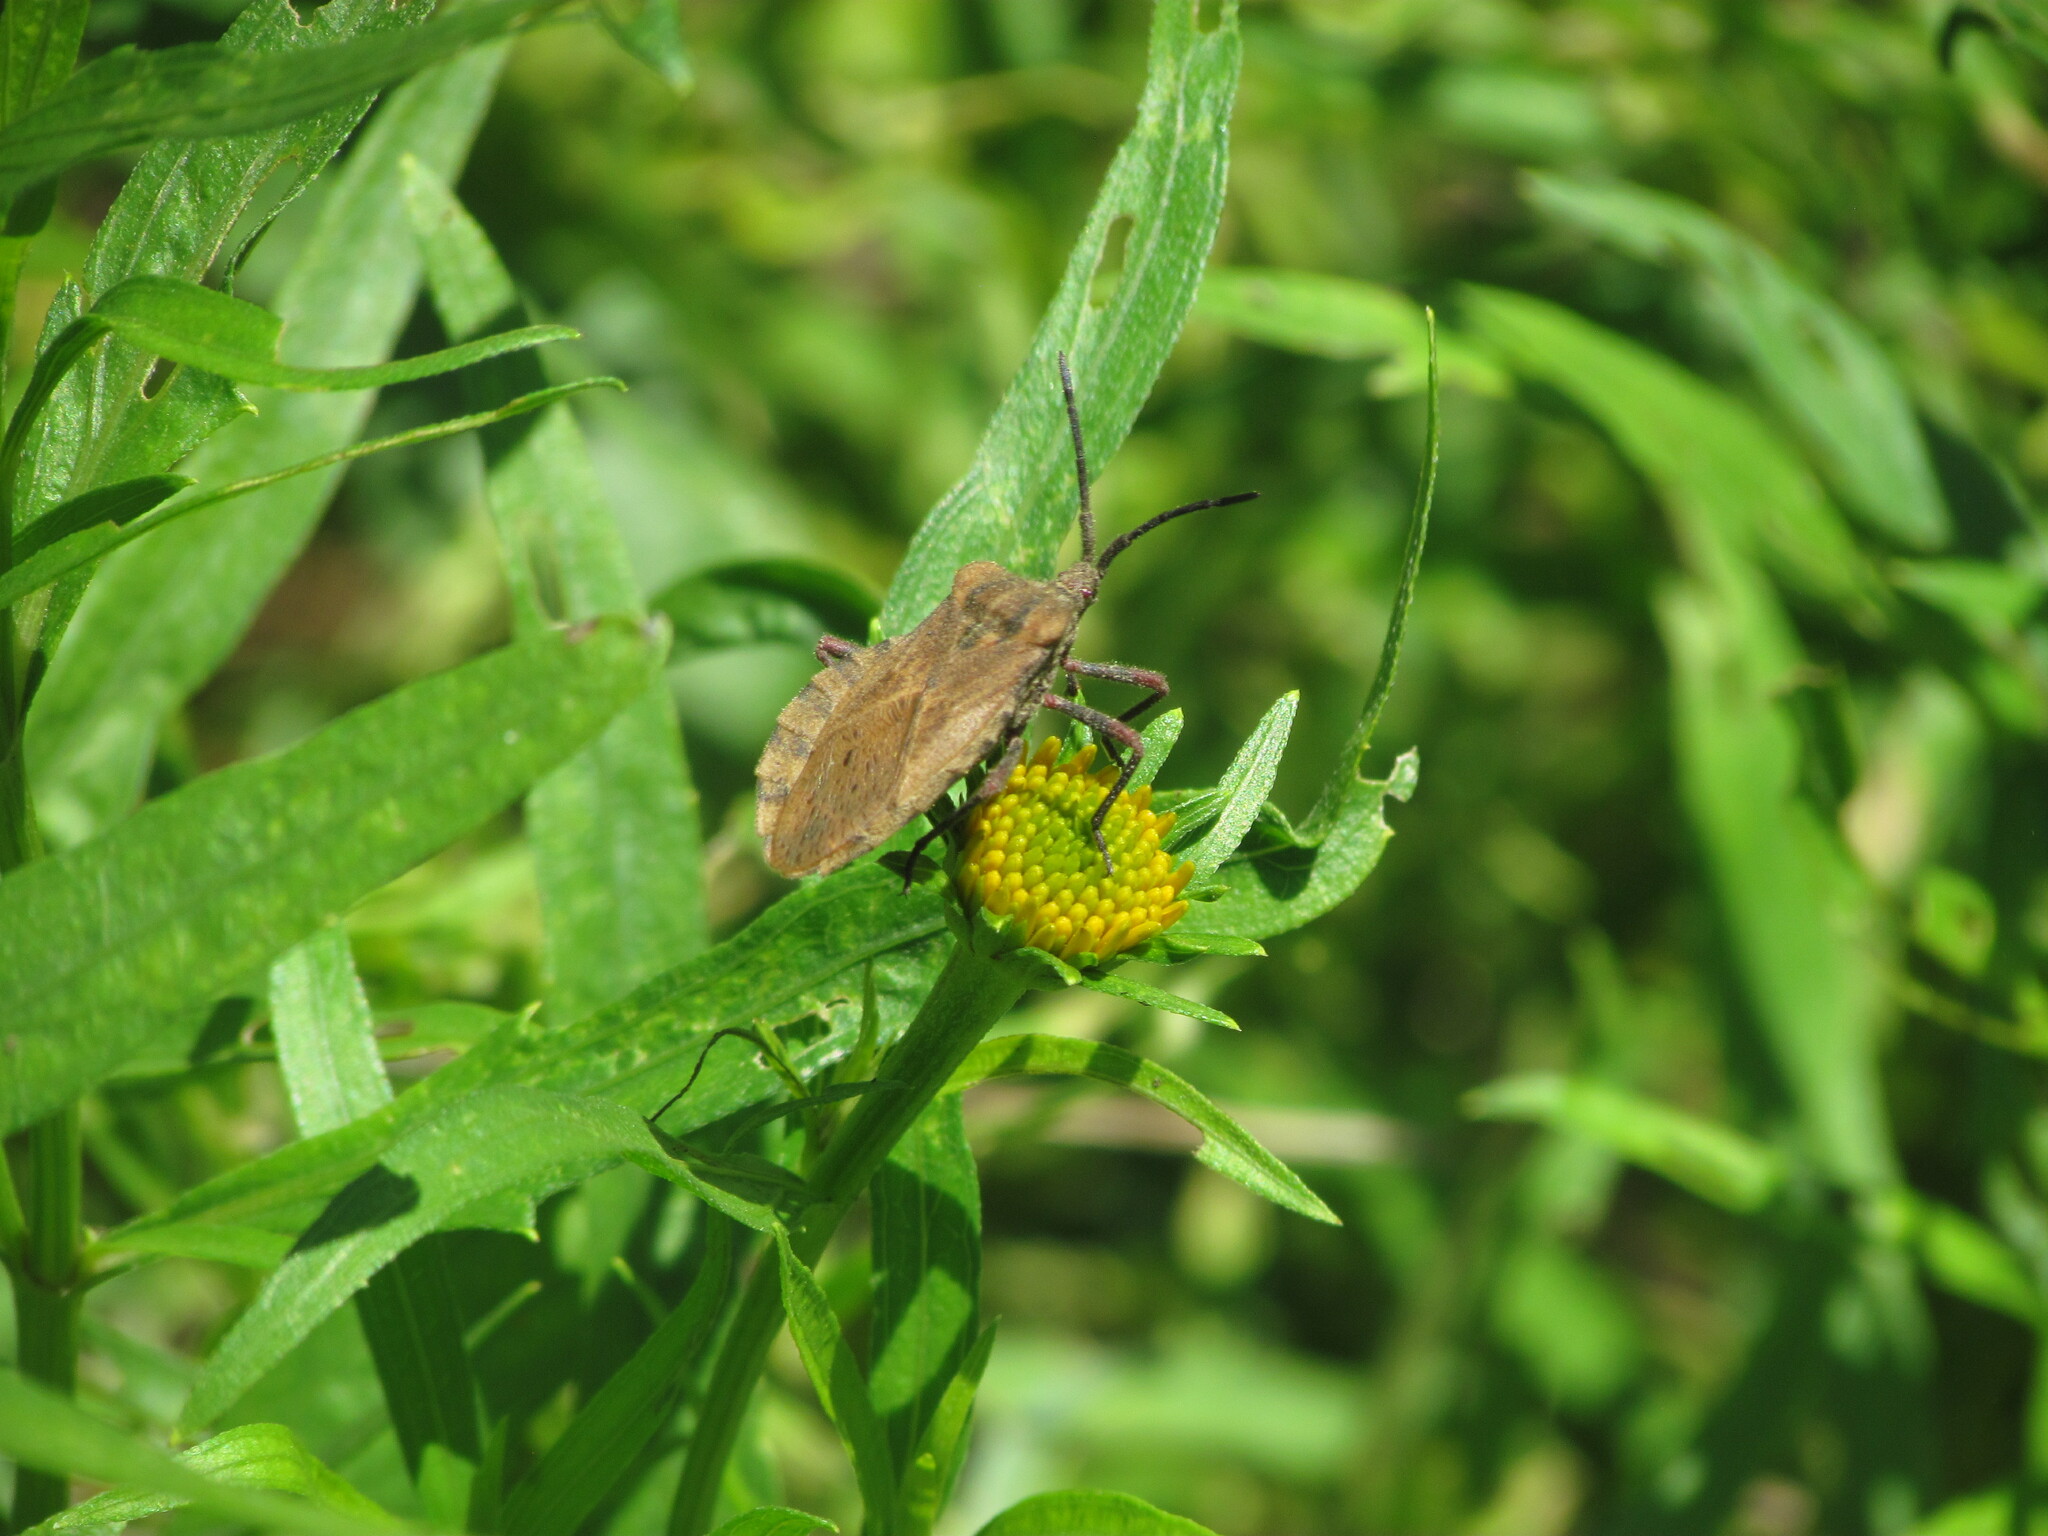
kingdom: Animalia
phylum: Arthropoda
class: Insecta
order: Hemiptera
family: Coreidae
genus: Spartocera
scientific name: Spartocera fusca
